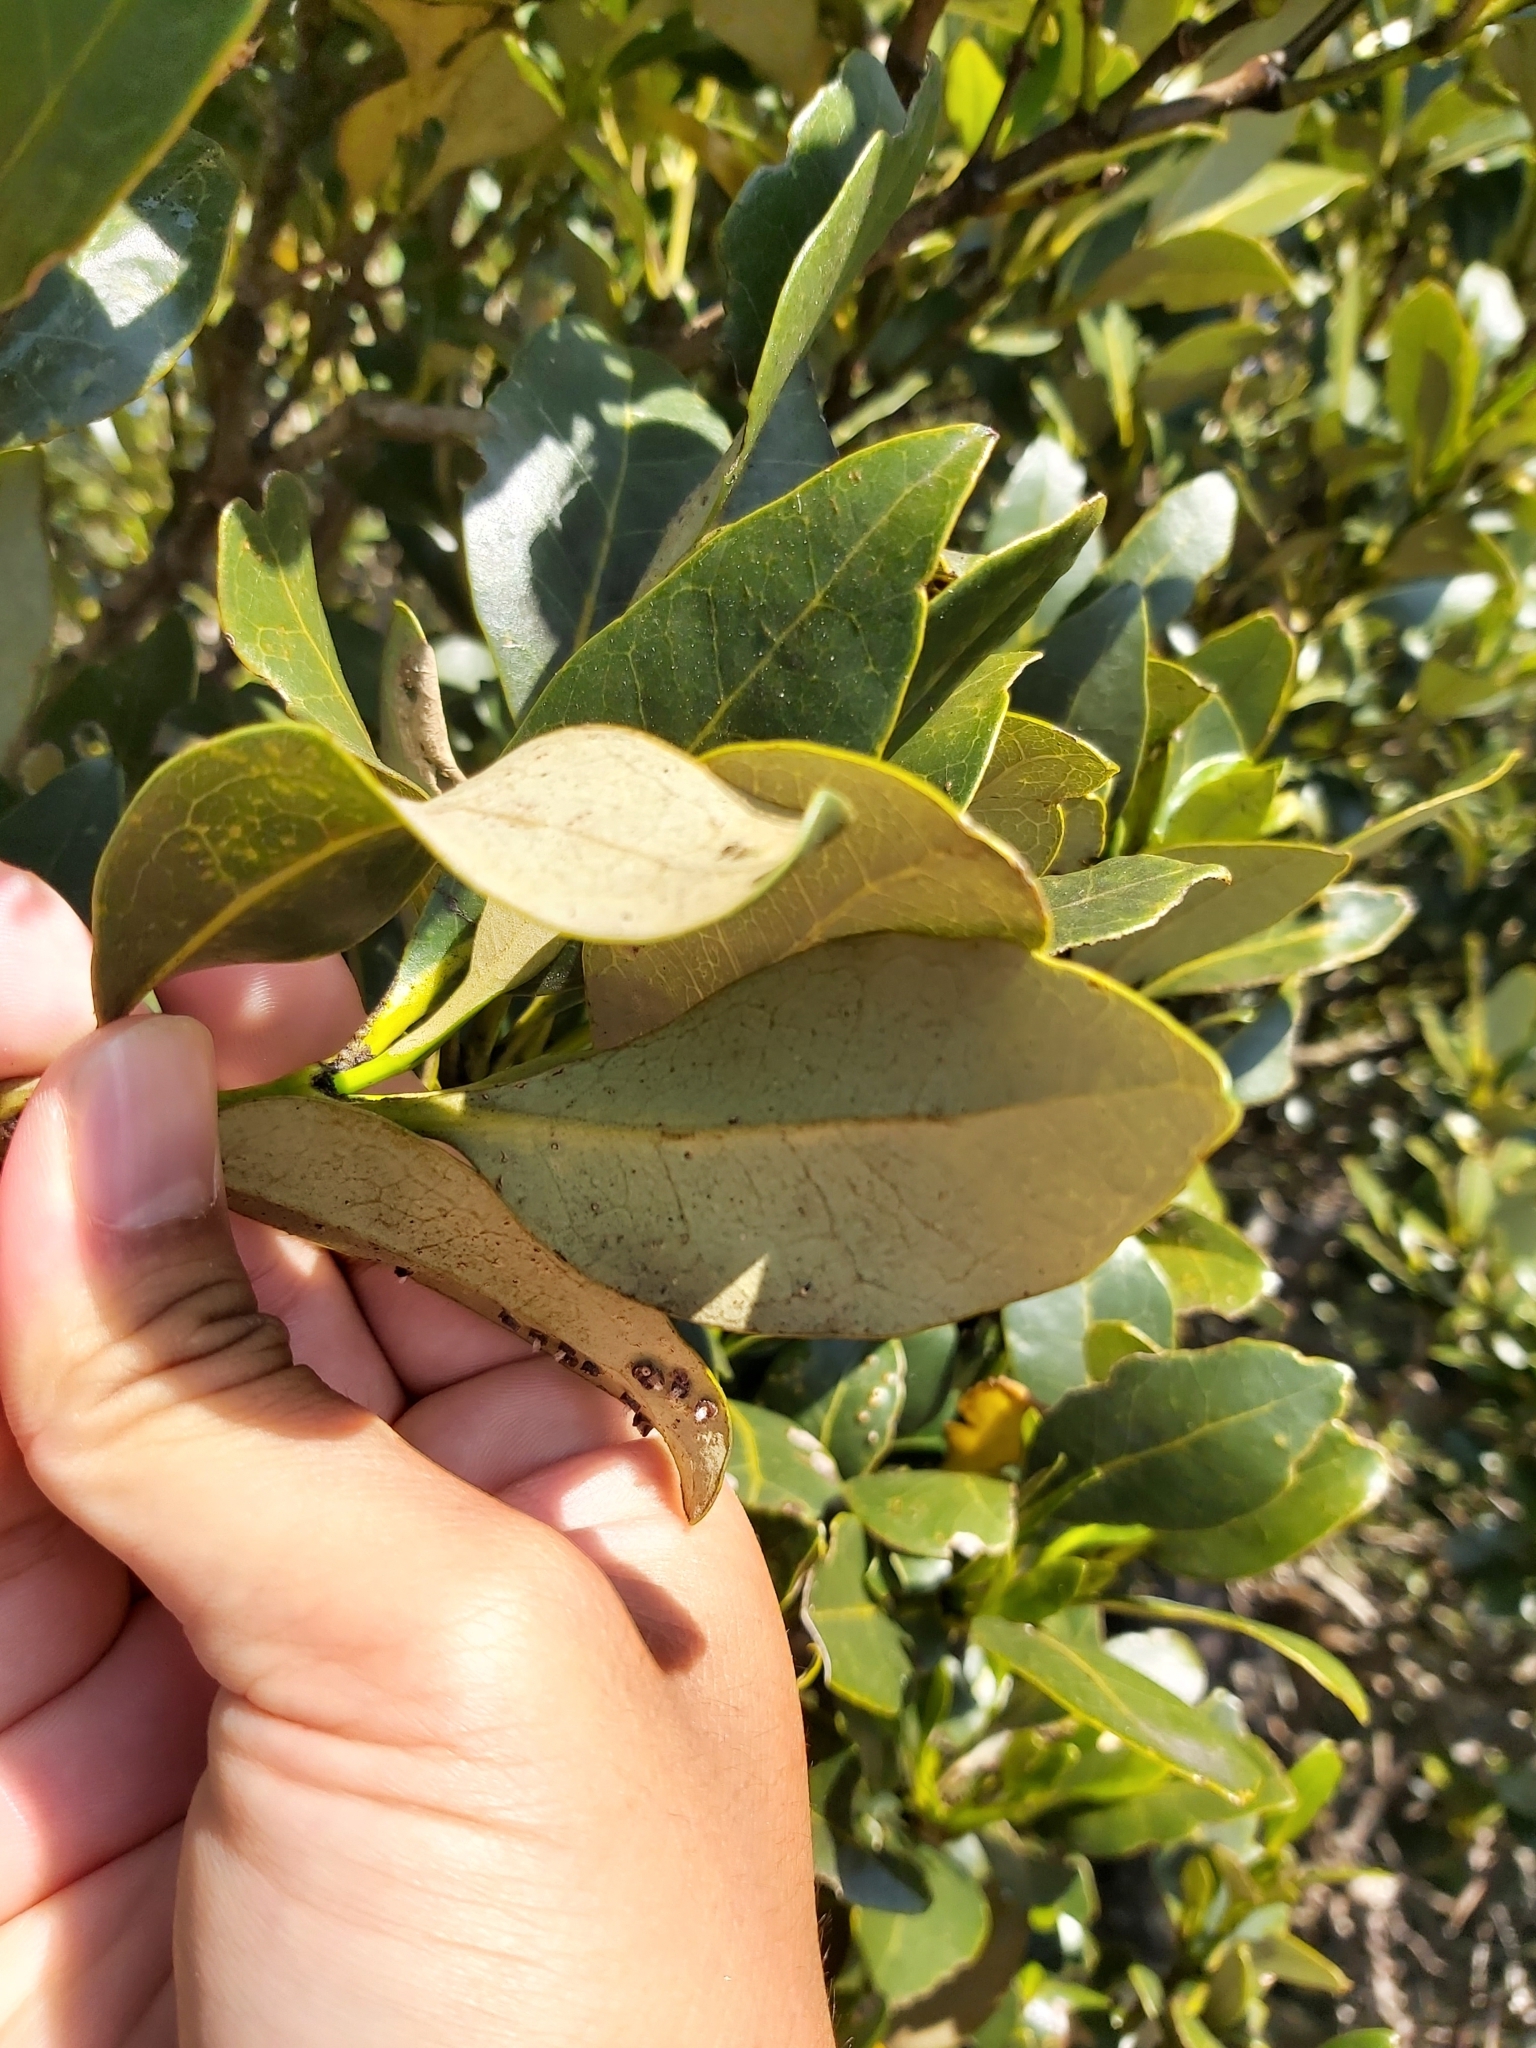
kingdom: Plantae
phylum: Tracheophyta
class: Magnoliopsida
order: Lamiales
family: Acanthaceae
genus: Avicennia
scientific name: Avicennia marina
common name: Gray mangrove
